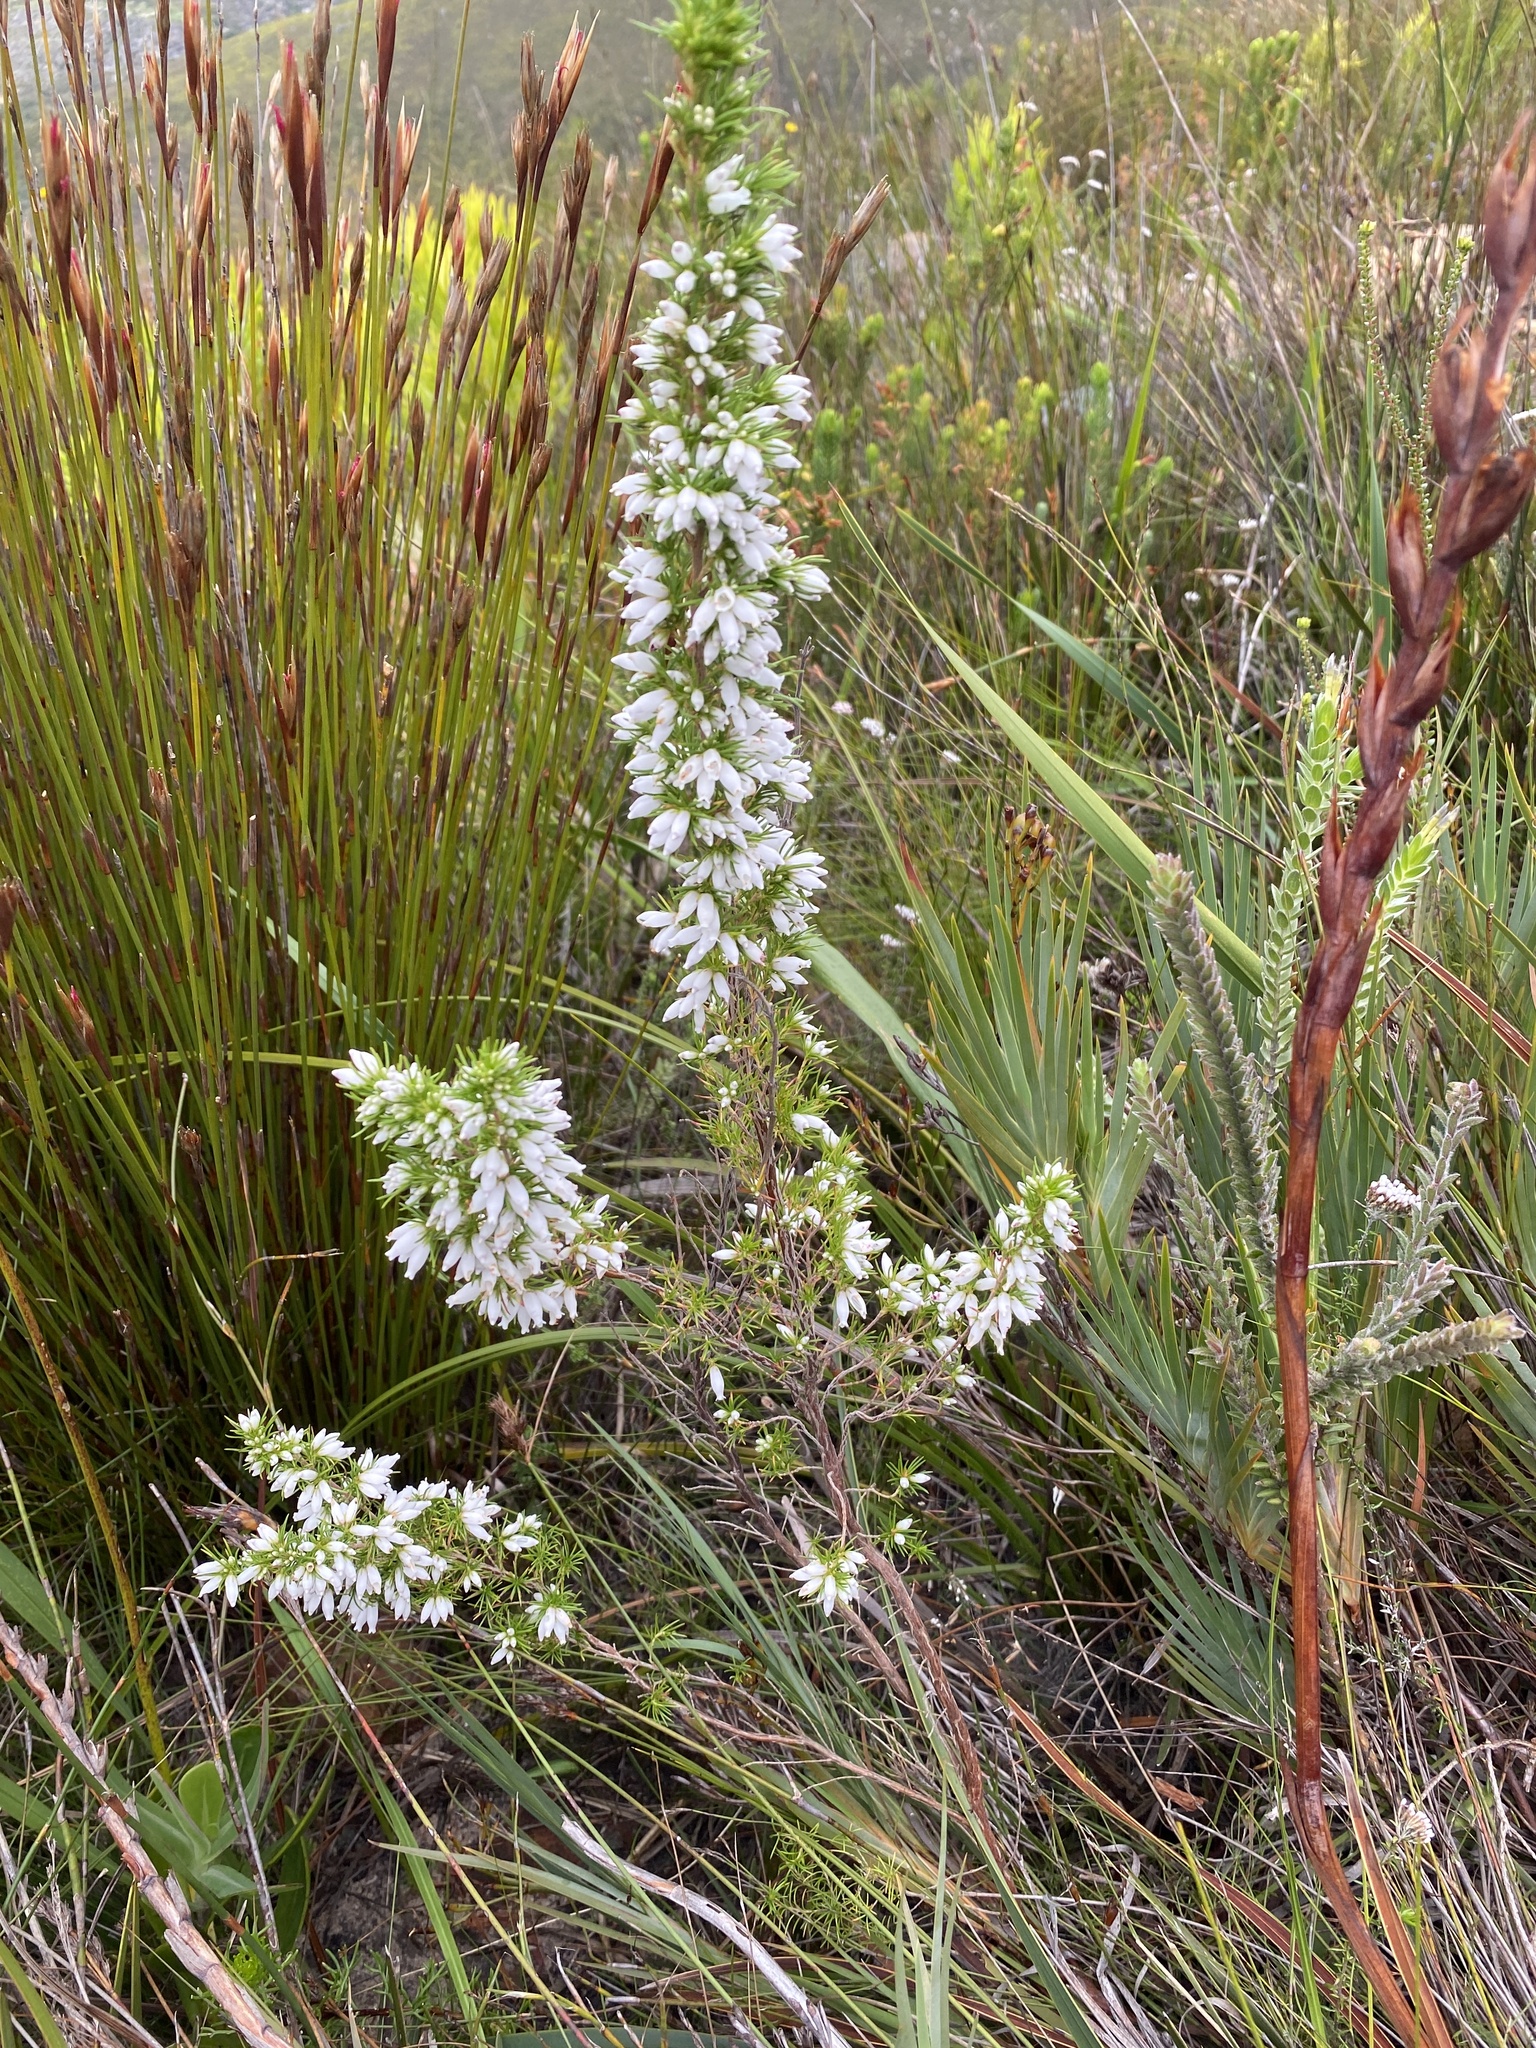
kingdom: Plantae
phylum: Tracheophyta
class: Magnoliopsida
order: Ericales
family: Ericaceae
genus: Erica
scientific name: Erica sitiens
